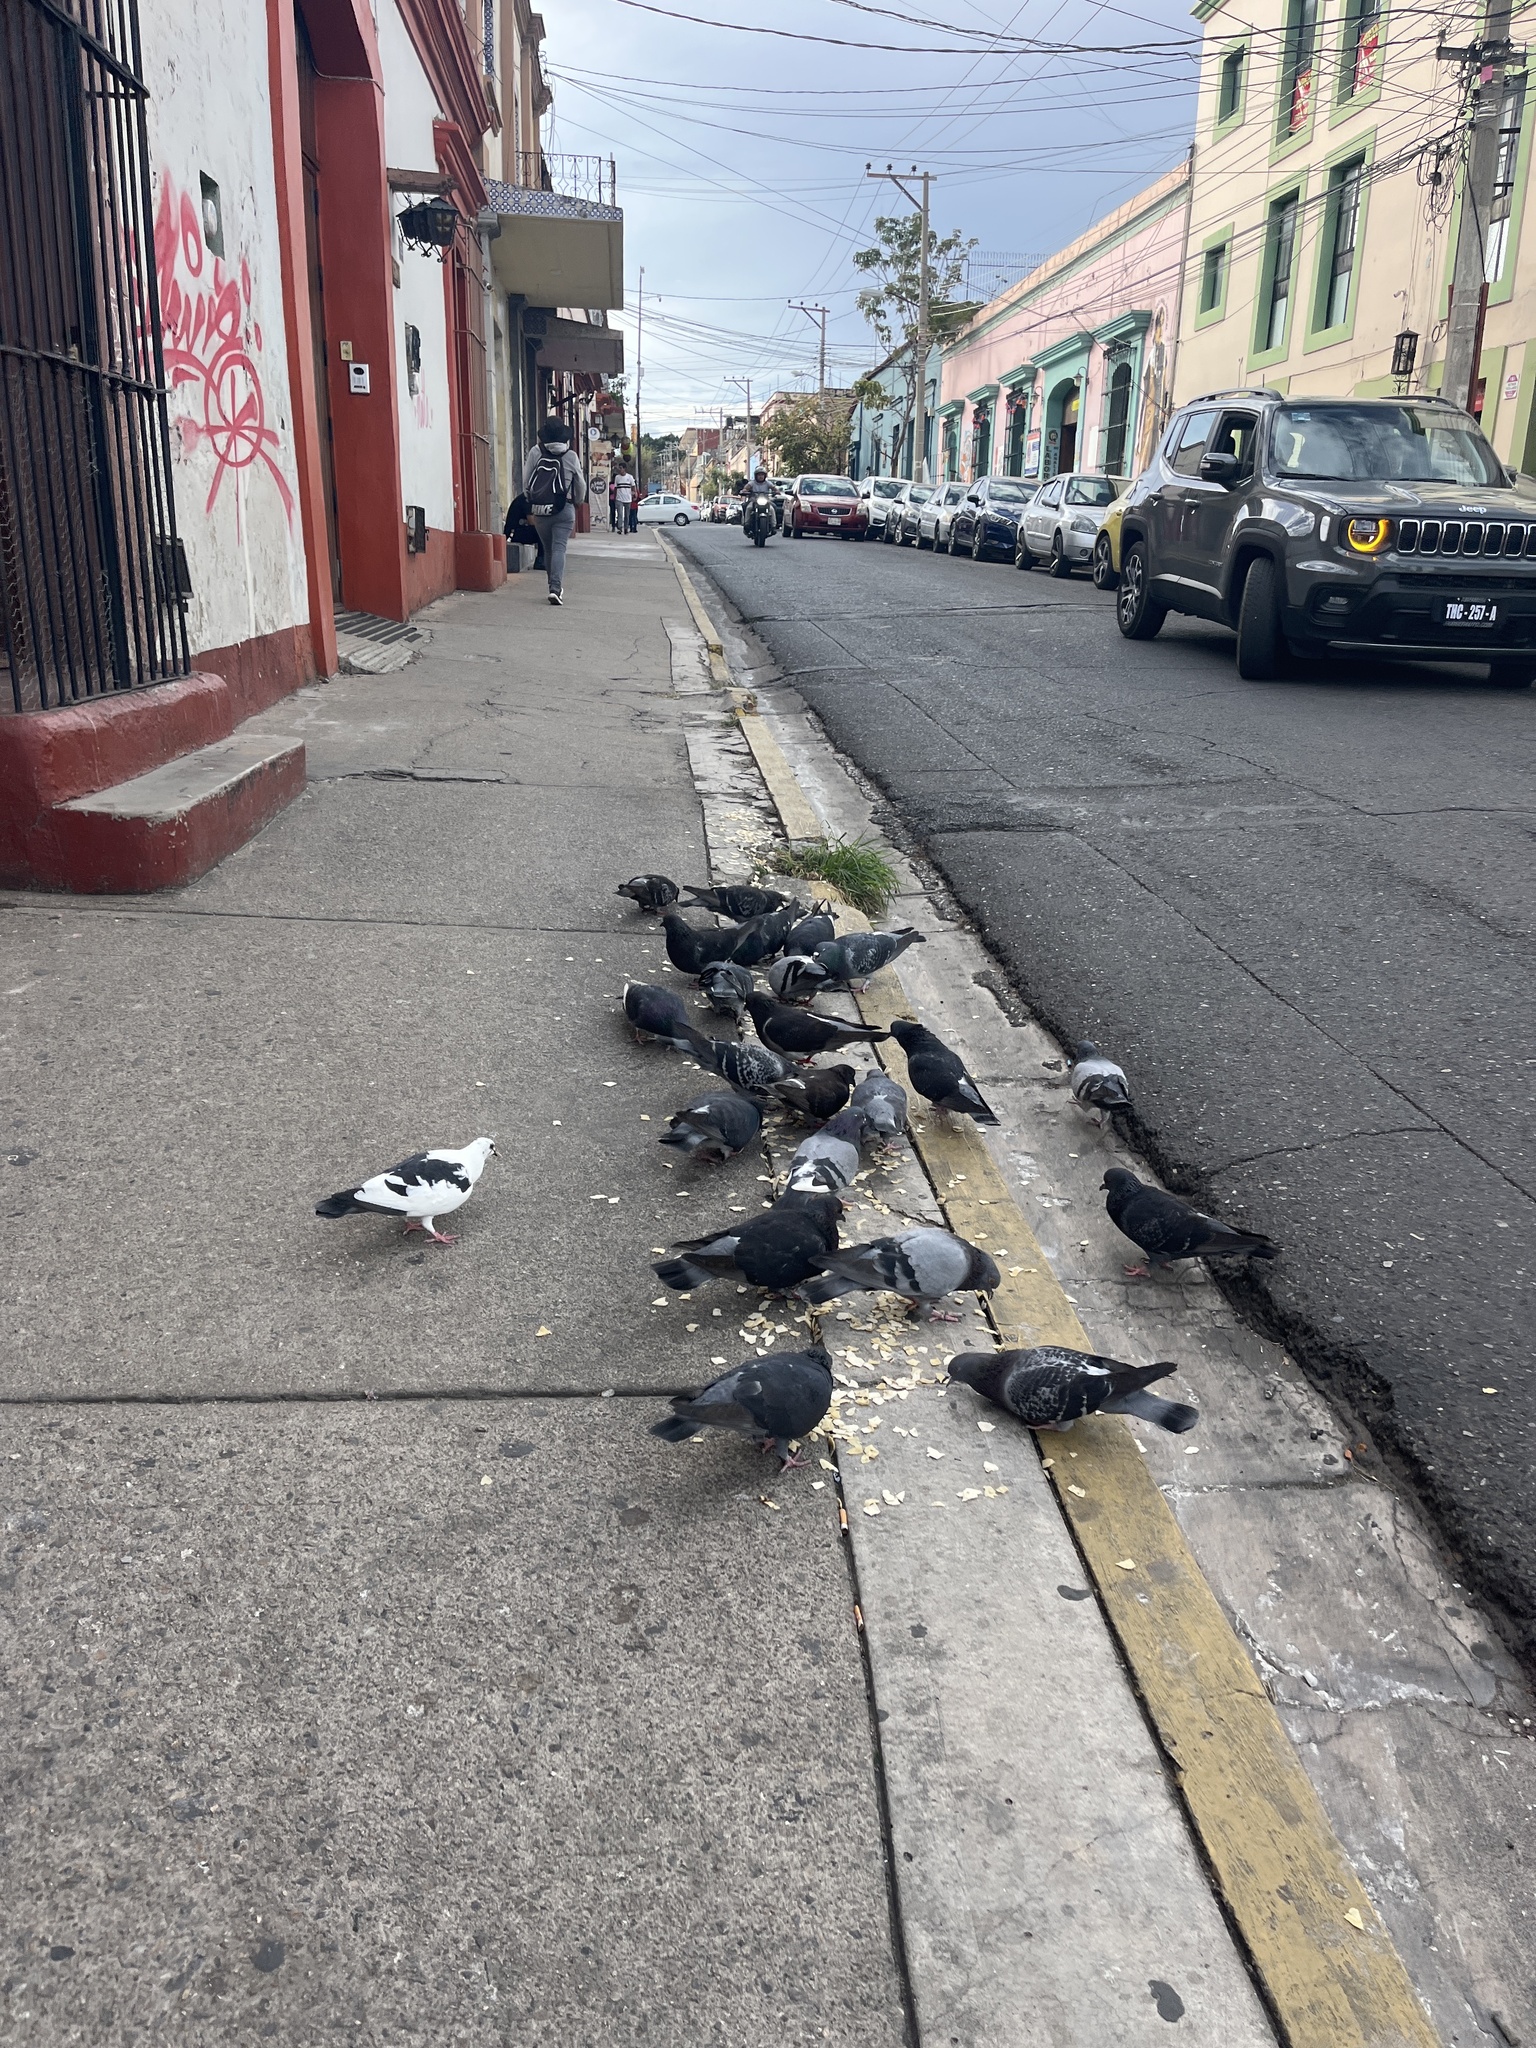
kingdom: Animalia
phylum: Chordata
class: Aves
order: Columbiformes
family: Columbidae
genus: Columba
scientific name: Columba livia
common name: Rock pigeon
